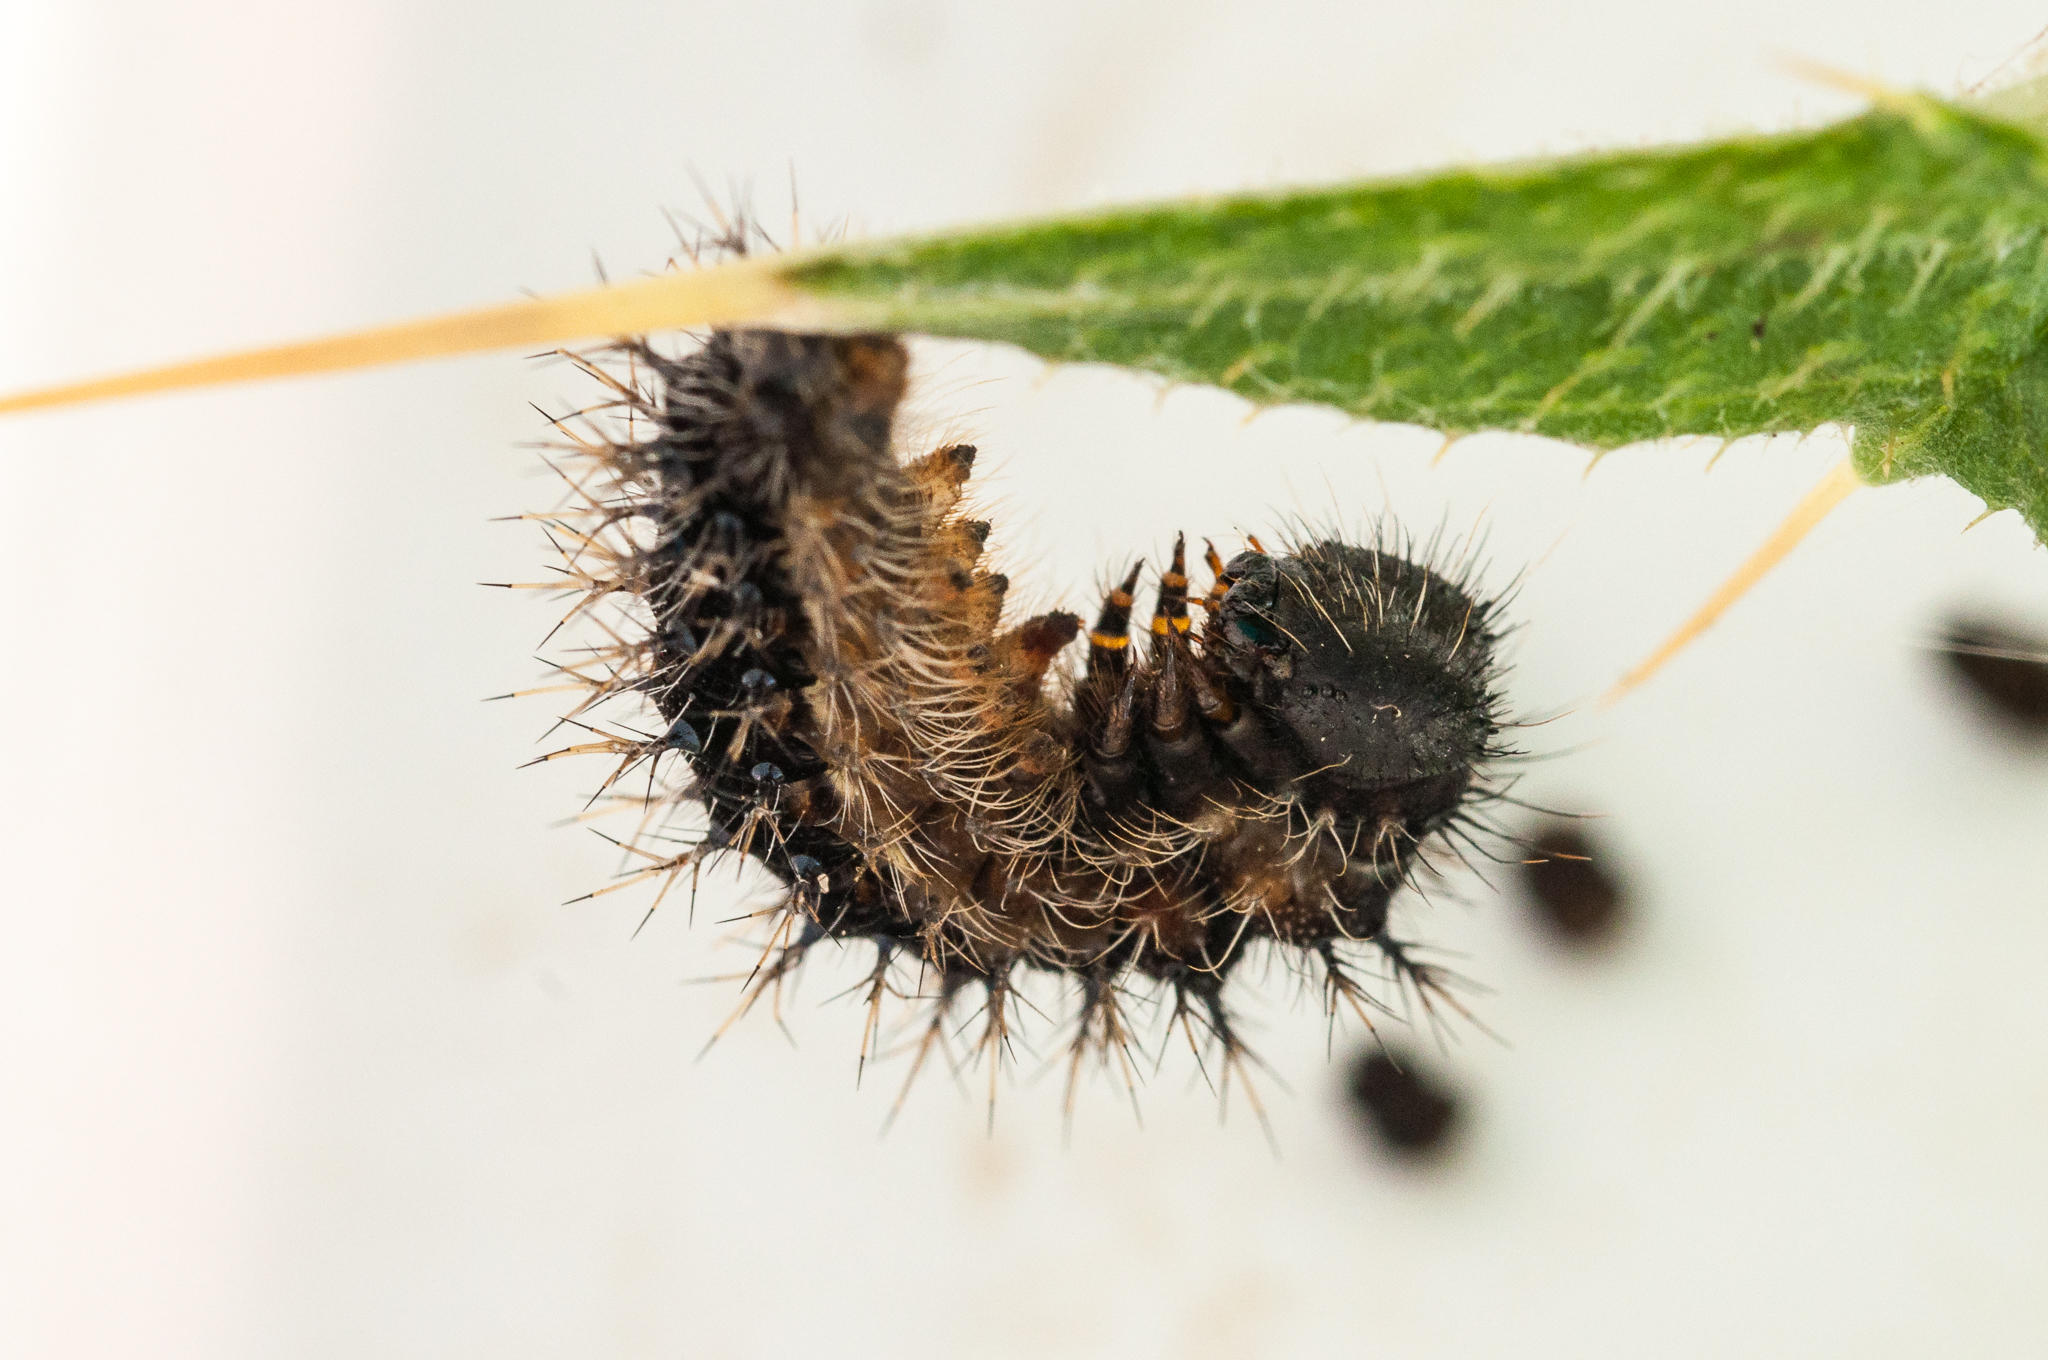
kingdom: Animalia
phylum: Arthropoda
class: Insecta
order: Lepidoptera
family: Nymphalidae
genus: Vanessa
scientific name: Vanessa cardui
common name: Painted lady
